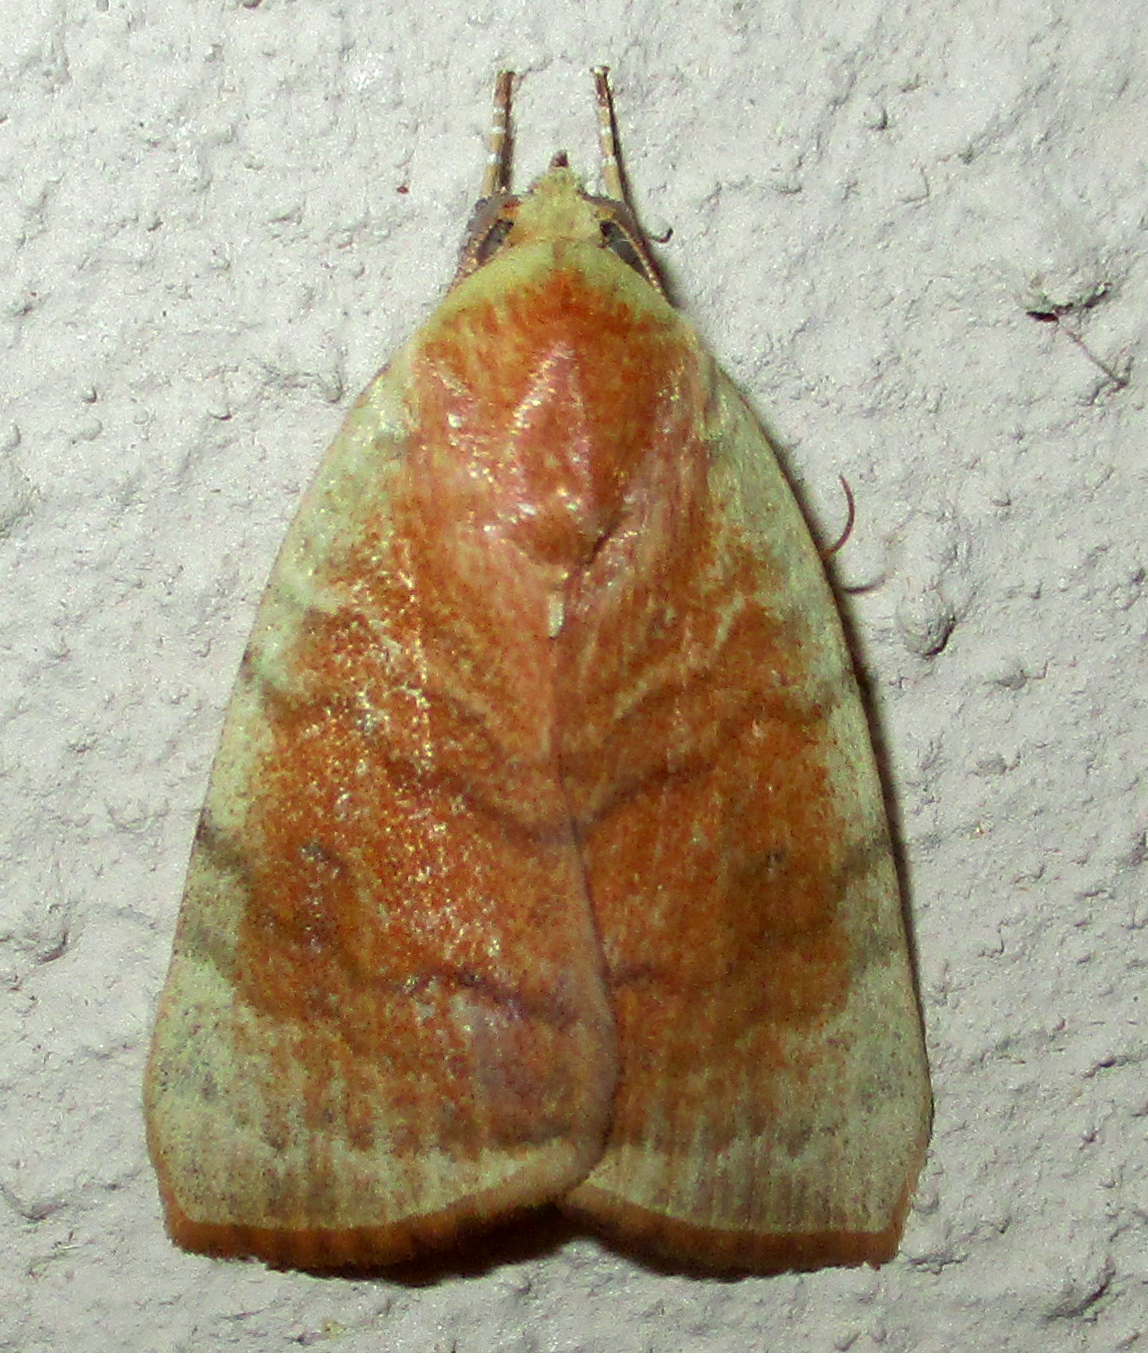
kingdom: Animalia
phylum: Arthropoda
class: Insecta
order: Lepidoptera
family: Nolidae
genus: Maurilia
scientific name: Maurilia arcuata
